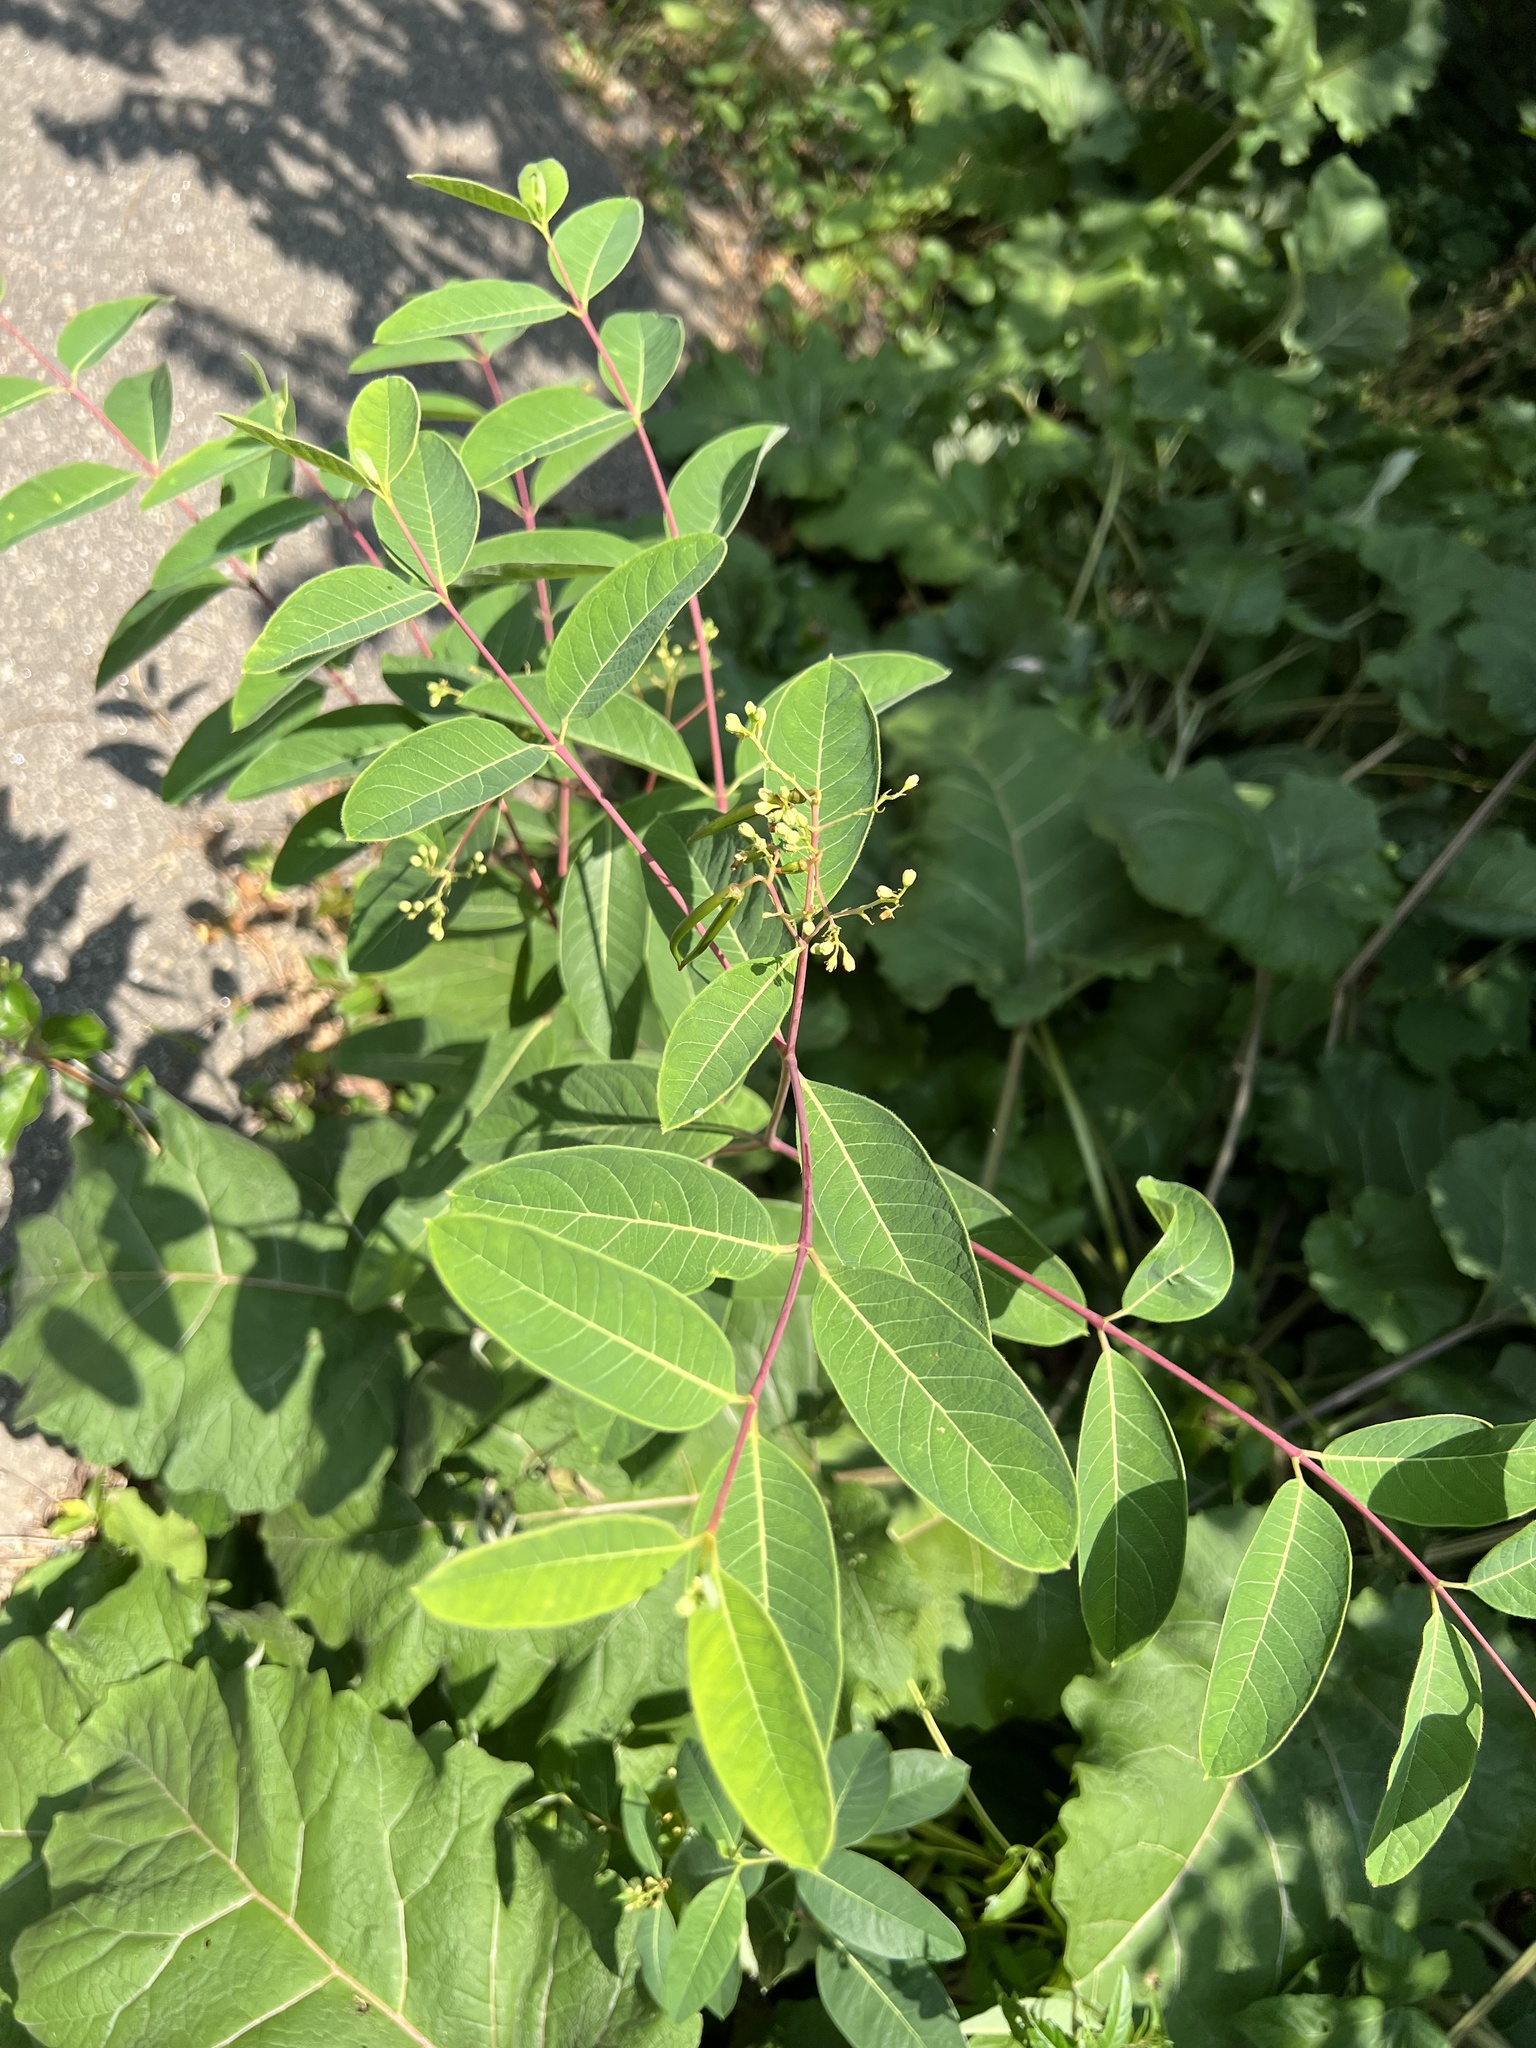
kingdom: Plantae
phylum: Tracheophyta
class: Magnoliopsida
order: Gentianales
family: Apocynaceae
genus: Apocynum
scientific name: Apocynum cannabinum
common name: Hemp dogbane
